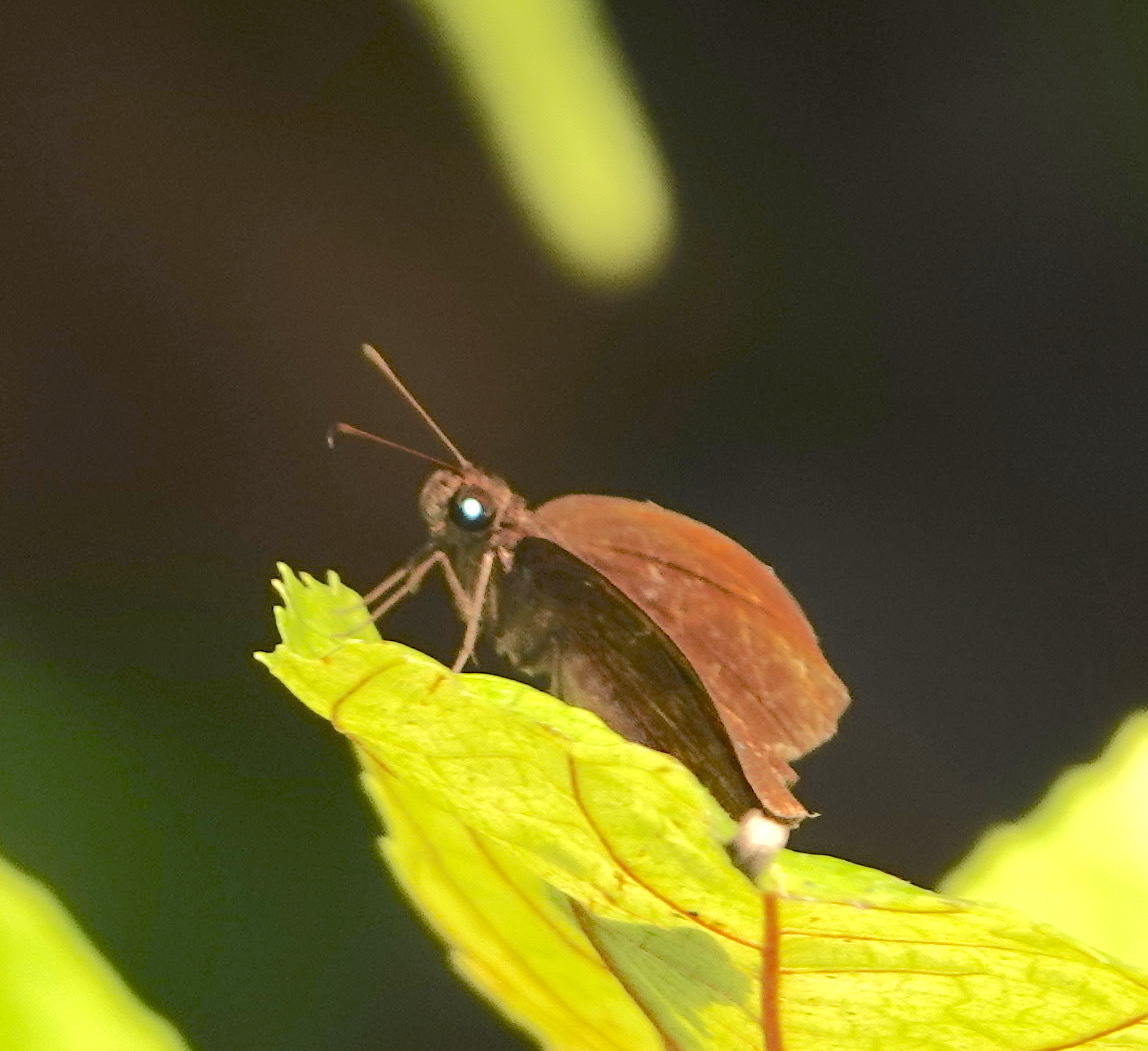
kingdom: Animalia
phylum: Arthropoda
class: Insecta
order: Lepidoptera
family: Hesperiidae
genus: Ancistroides
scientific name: Ancistroides nigrita
